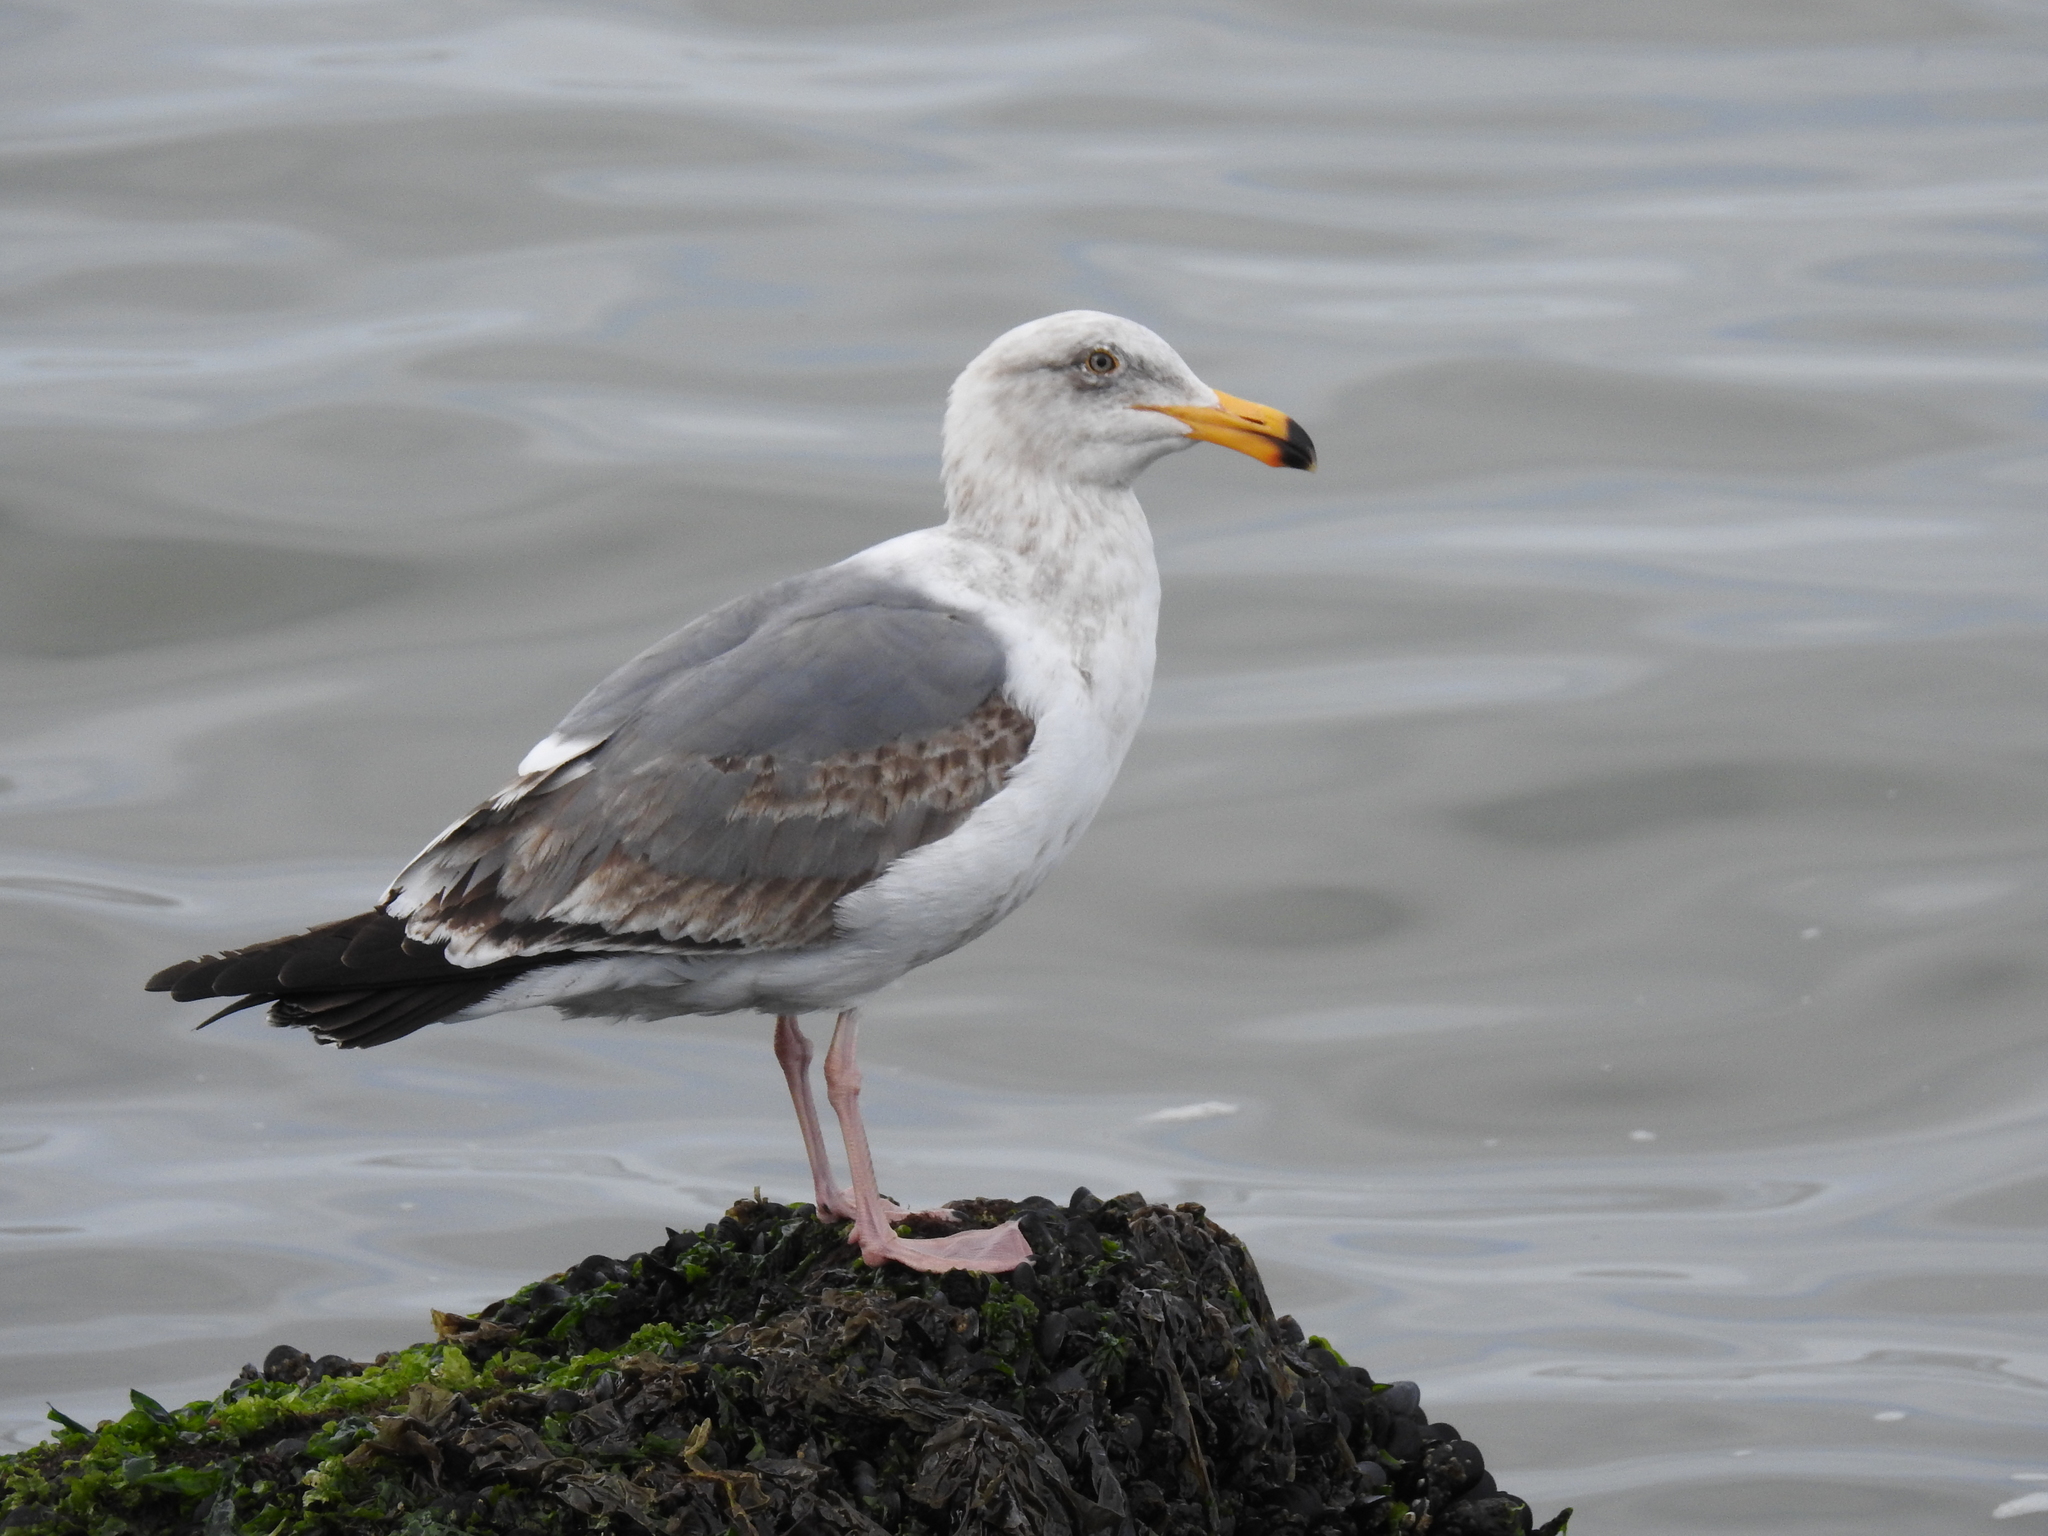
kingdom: Animalia
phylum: Chordata
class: Aves
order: Charadriiformes
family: Laridae
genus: Larus
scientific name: Larus occidentalis
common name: Western gull
